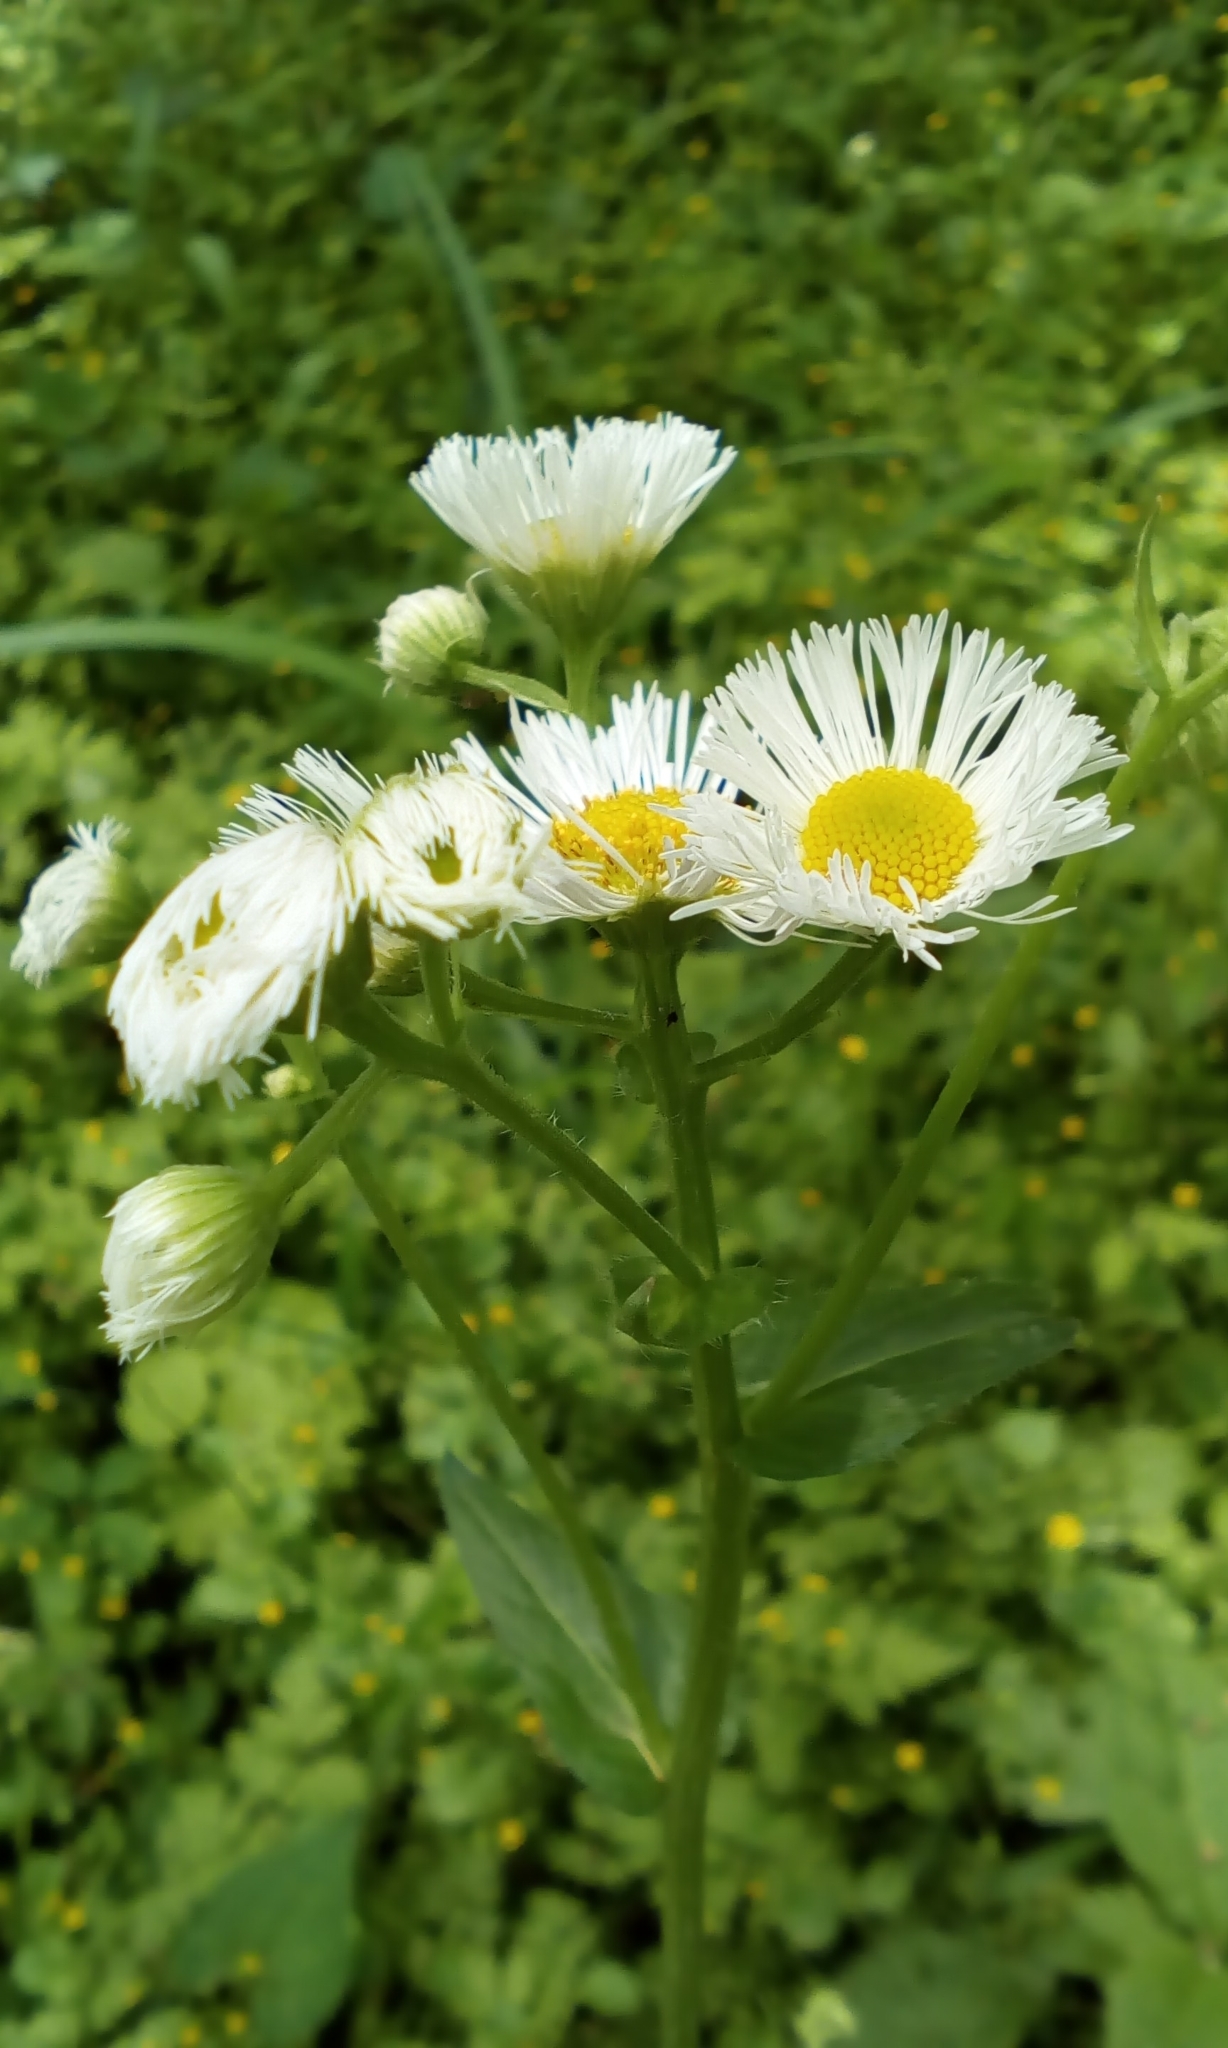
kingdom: Plantae
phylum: Tracheophyta
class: Magnoliopsida
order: Asterales
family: Asteraceae
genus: Erigeron
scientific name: Erigeron philadelphicus
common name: Robin's-plantain
